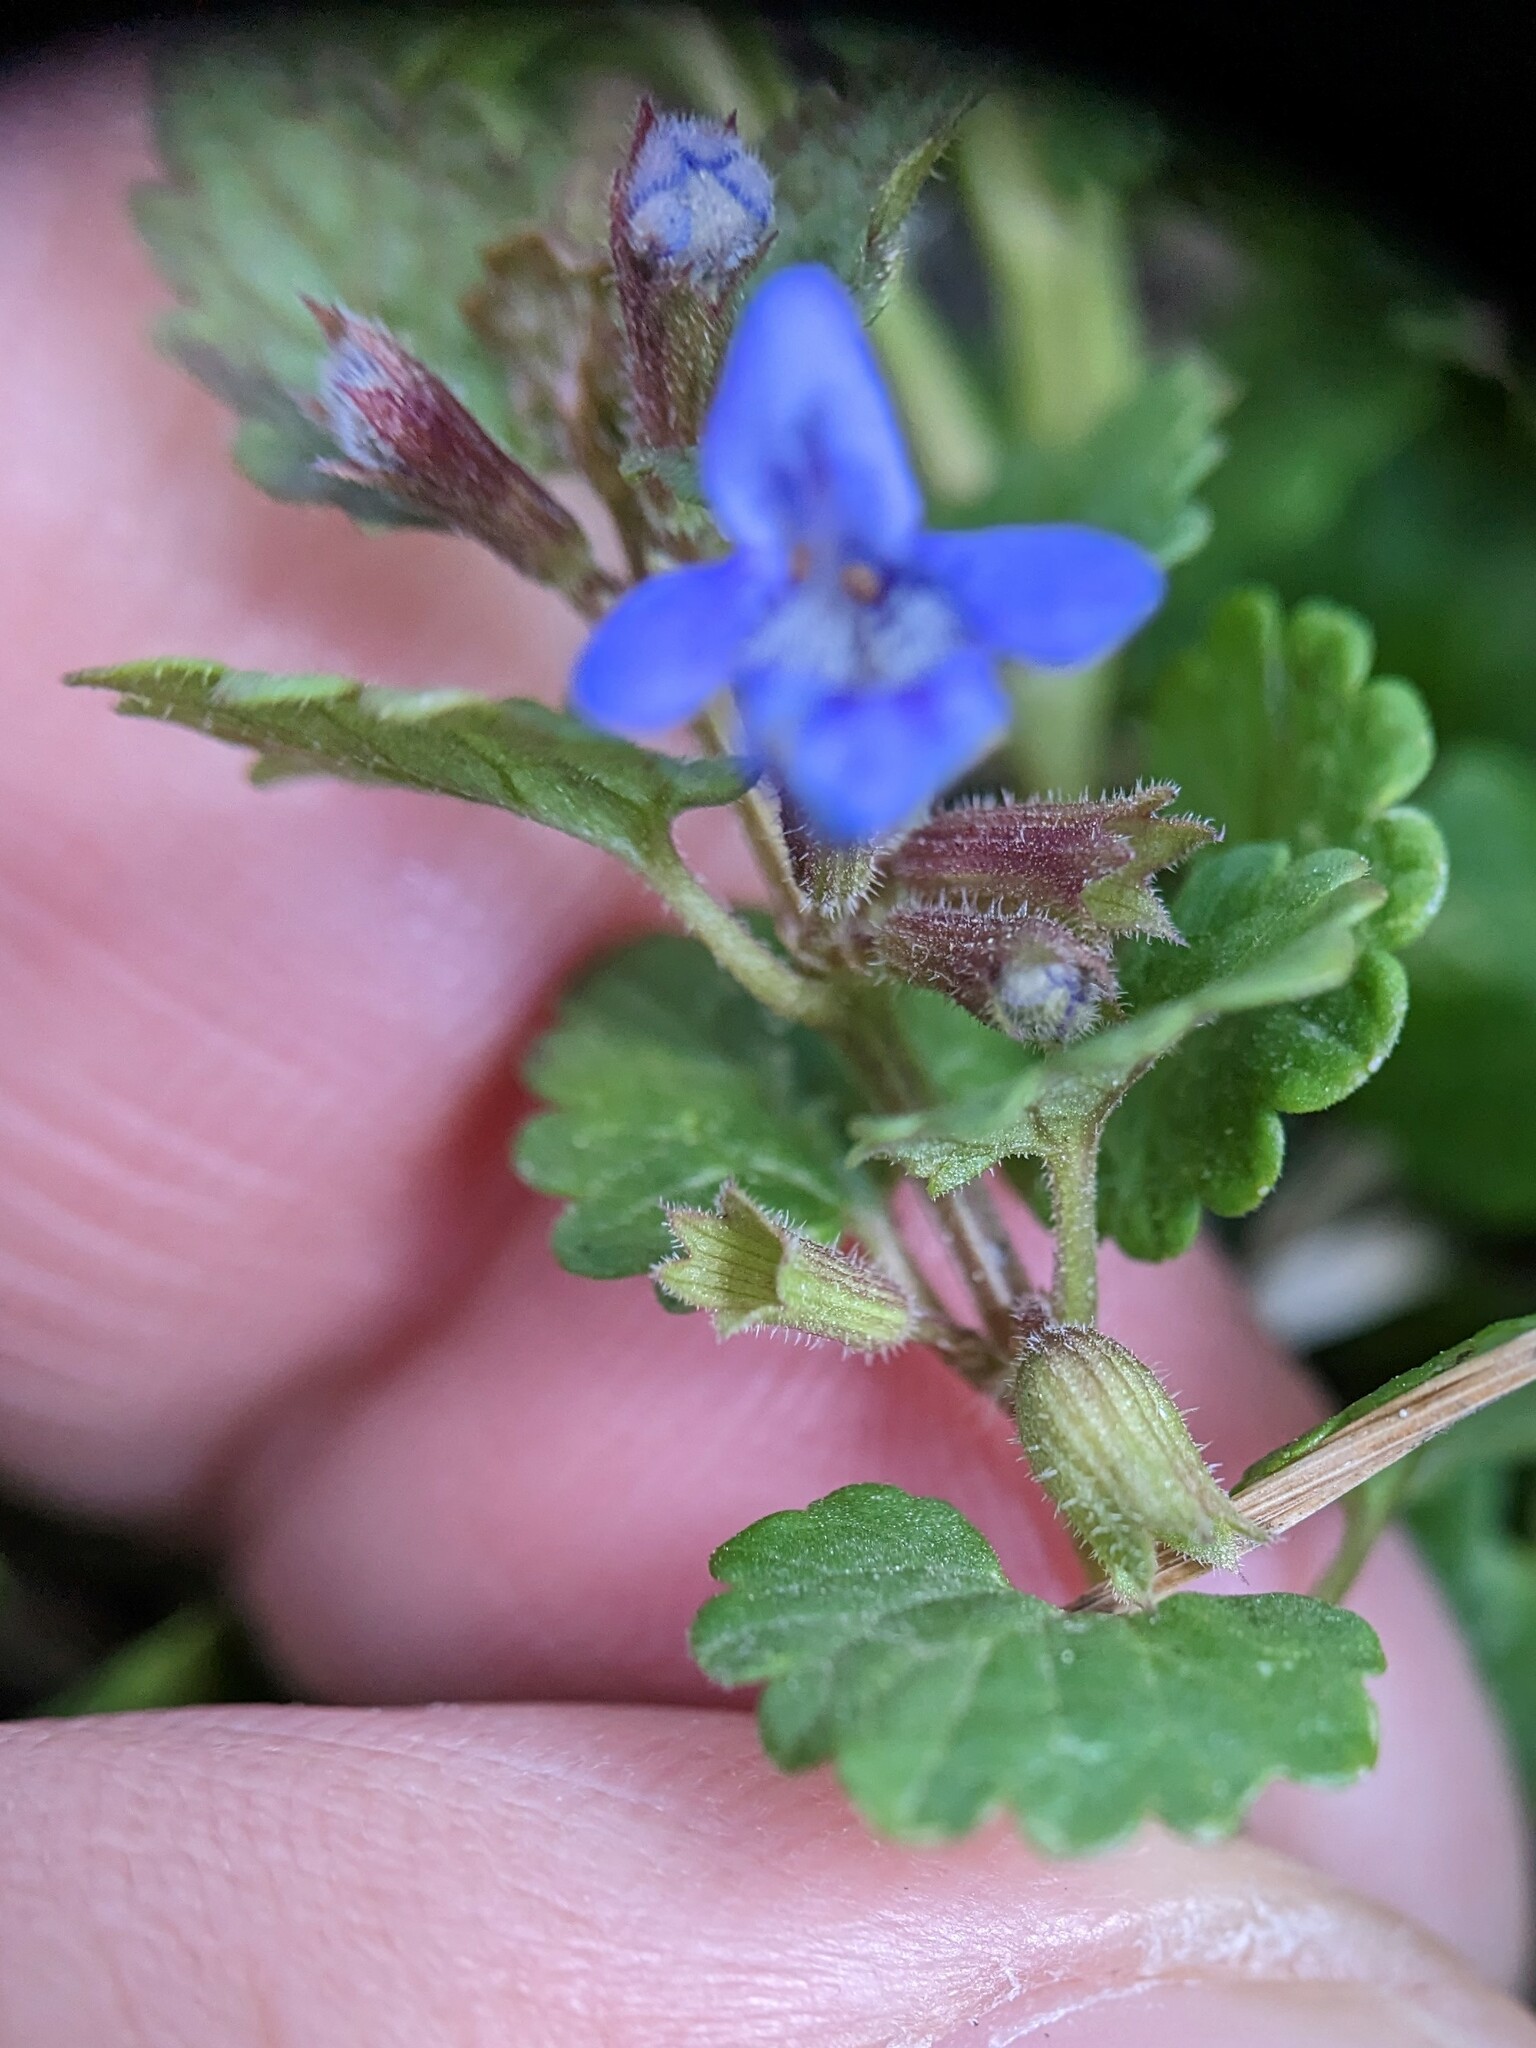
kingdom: Plantae
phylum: Tracheophyta
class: Magnoliopsida
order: Lamiales
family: Lamiaceae
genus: Glechoma
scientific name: Glechoma hederacea
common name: Ground ivy
